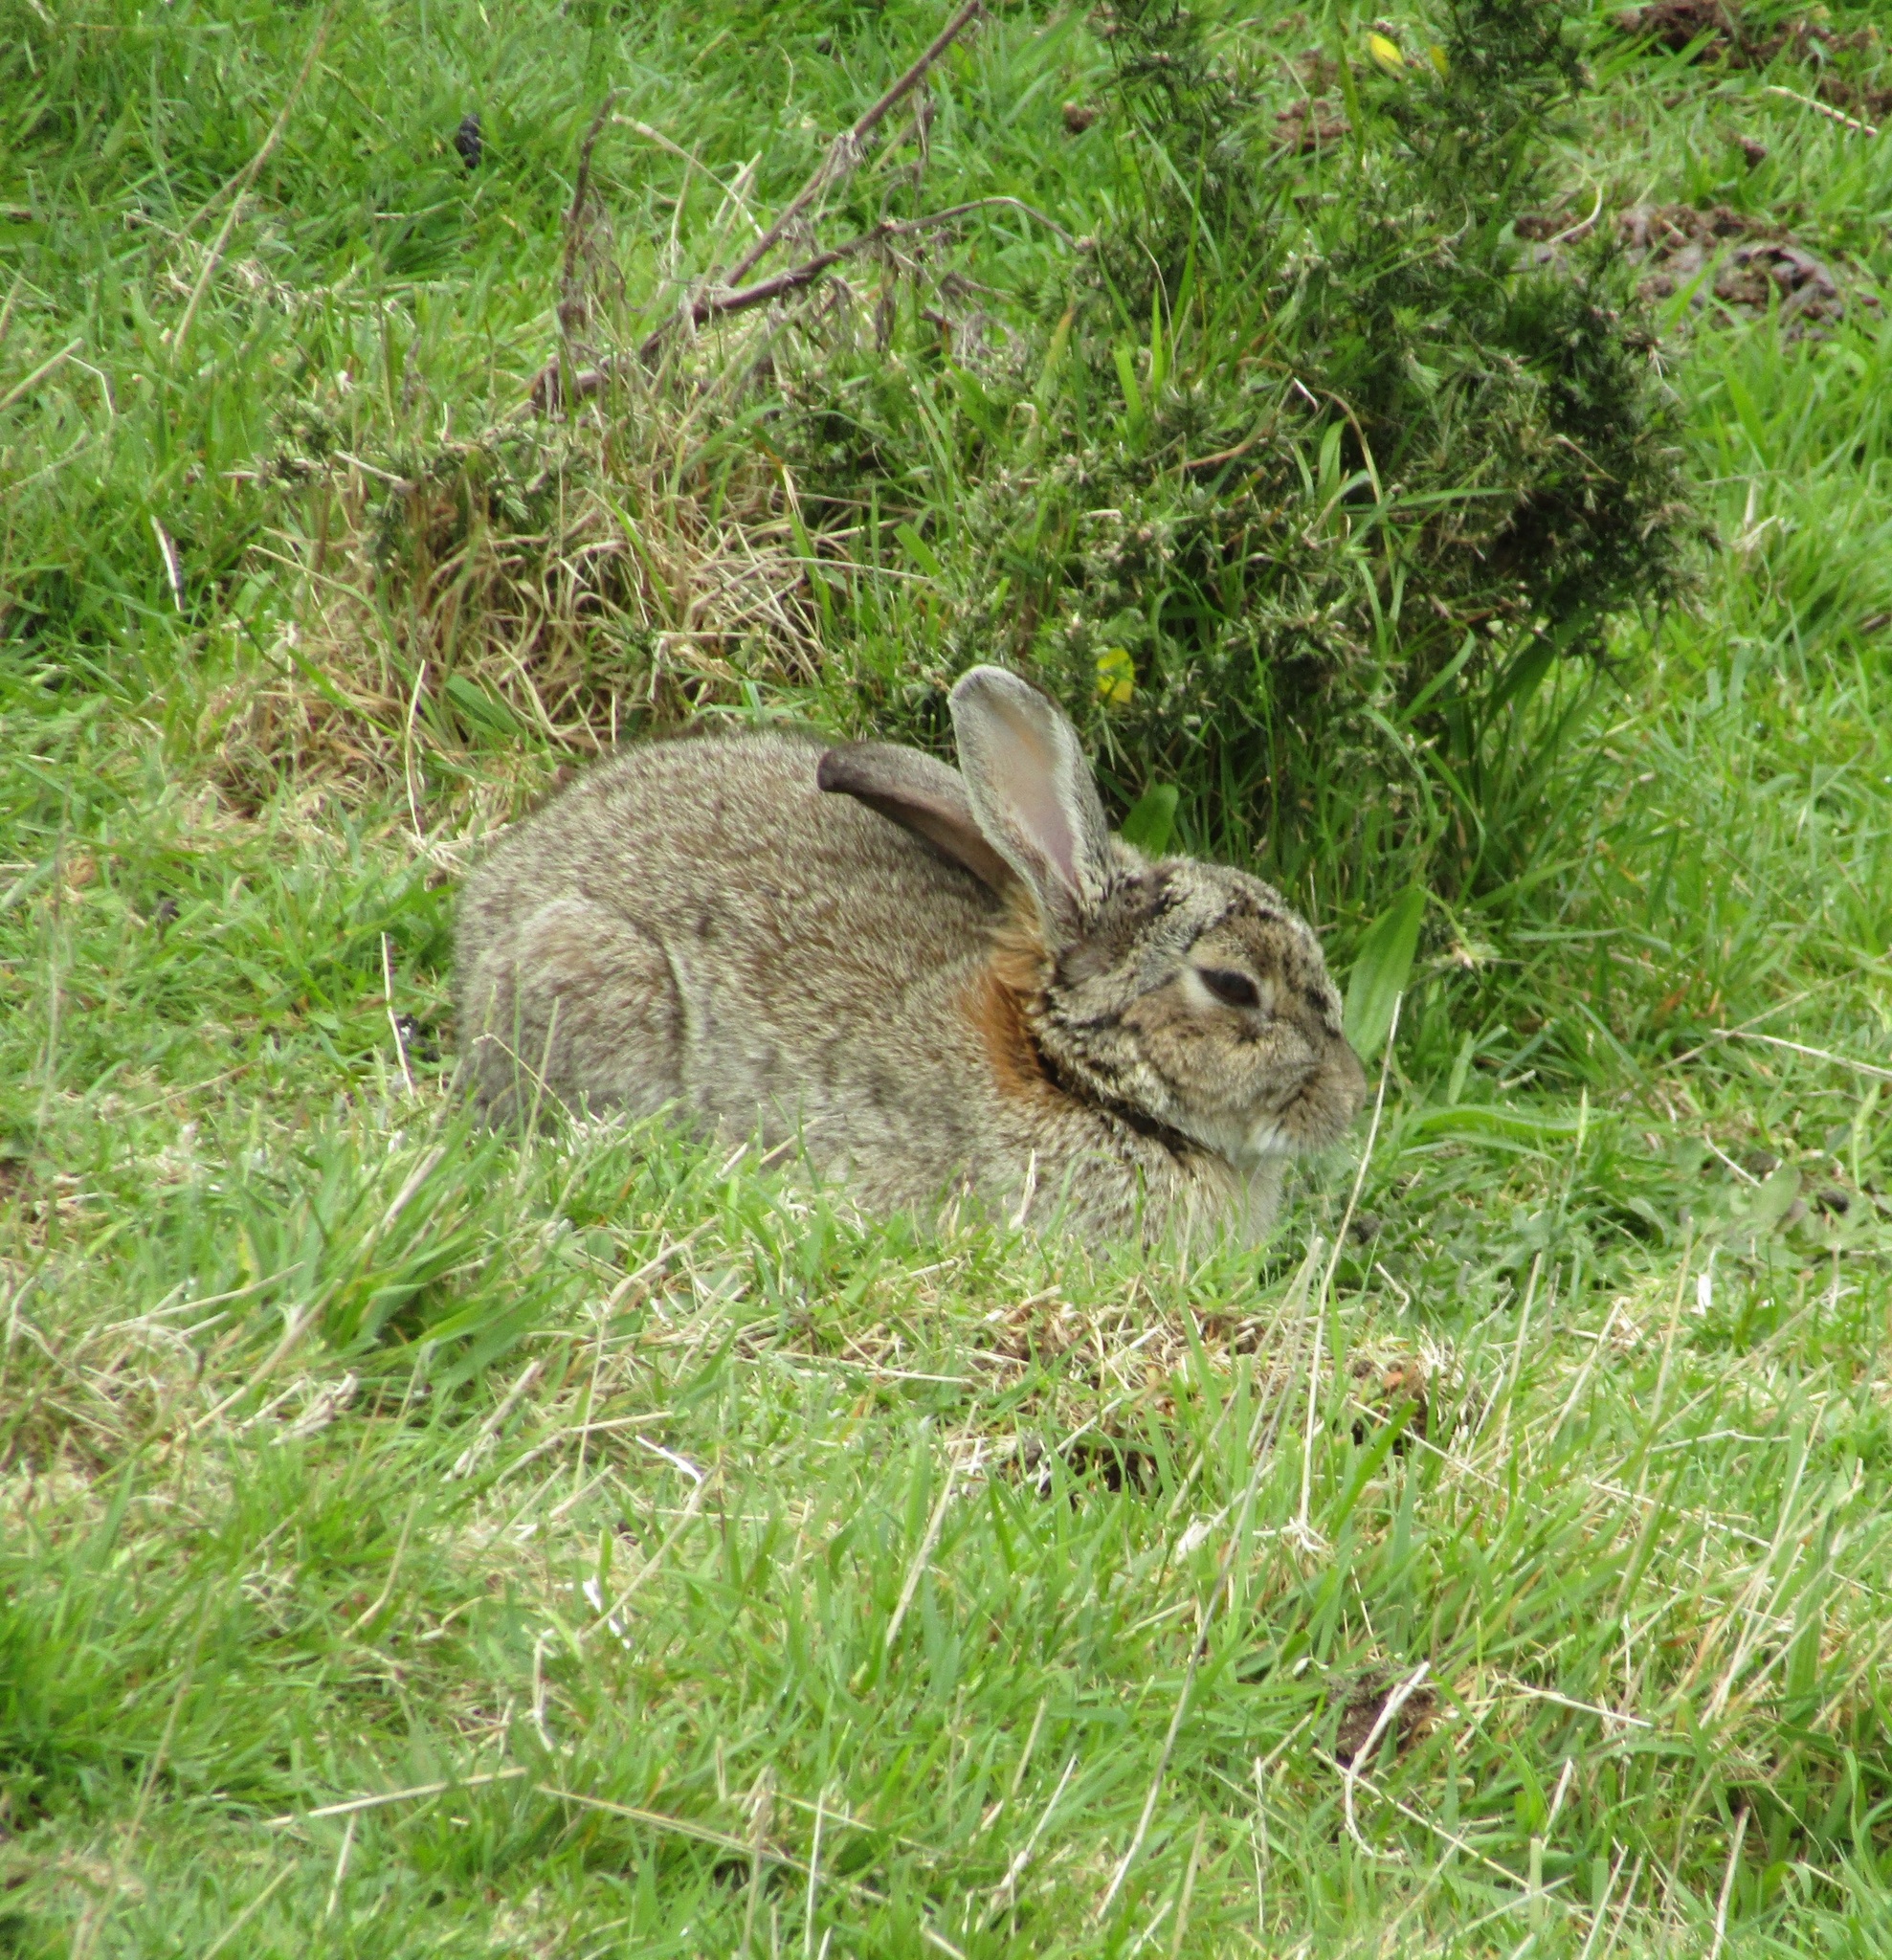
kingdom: Animalia
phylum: Chordata
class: Mammalia
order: Lagomorpha
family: Leporidae
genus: Oryctolagus
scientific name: Oryctolagus cuniculus
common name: European rabbit
